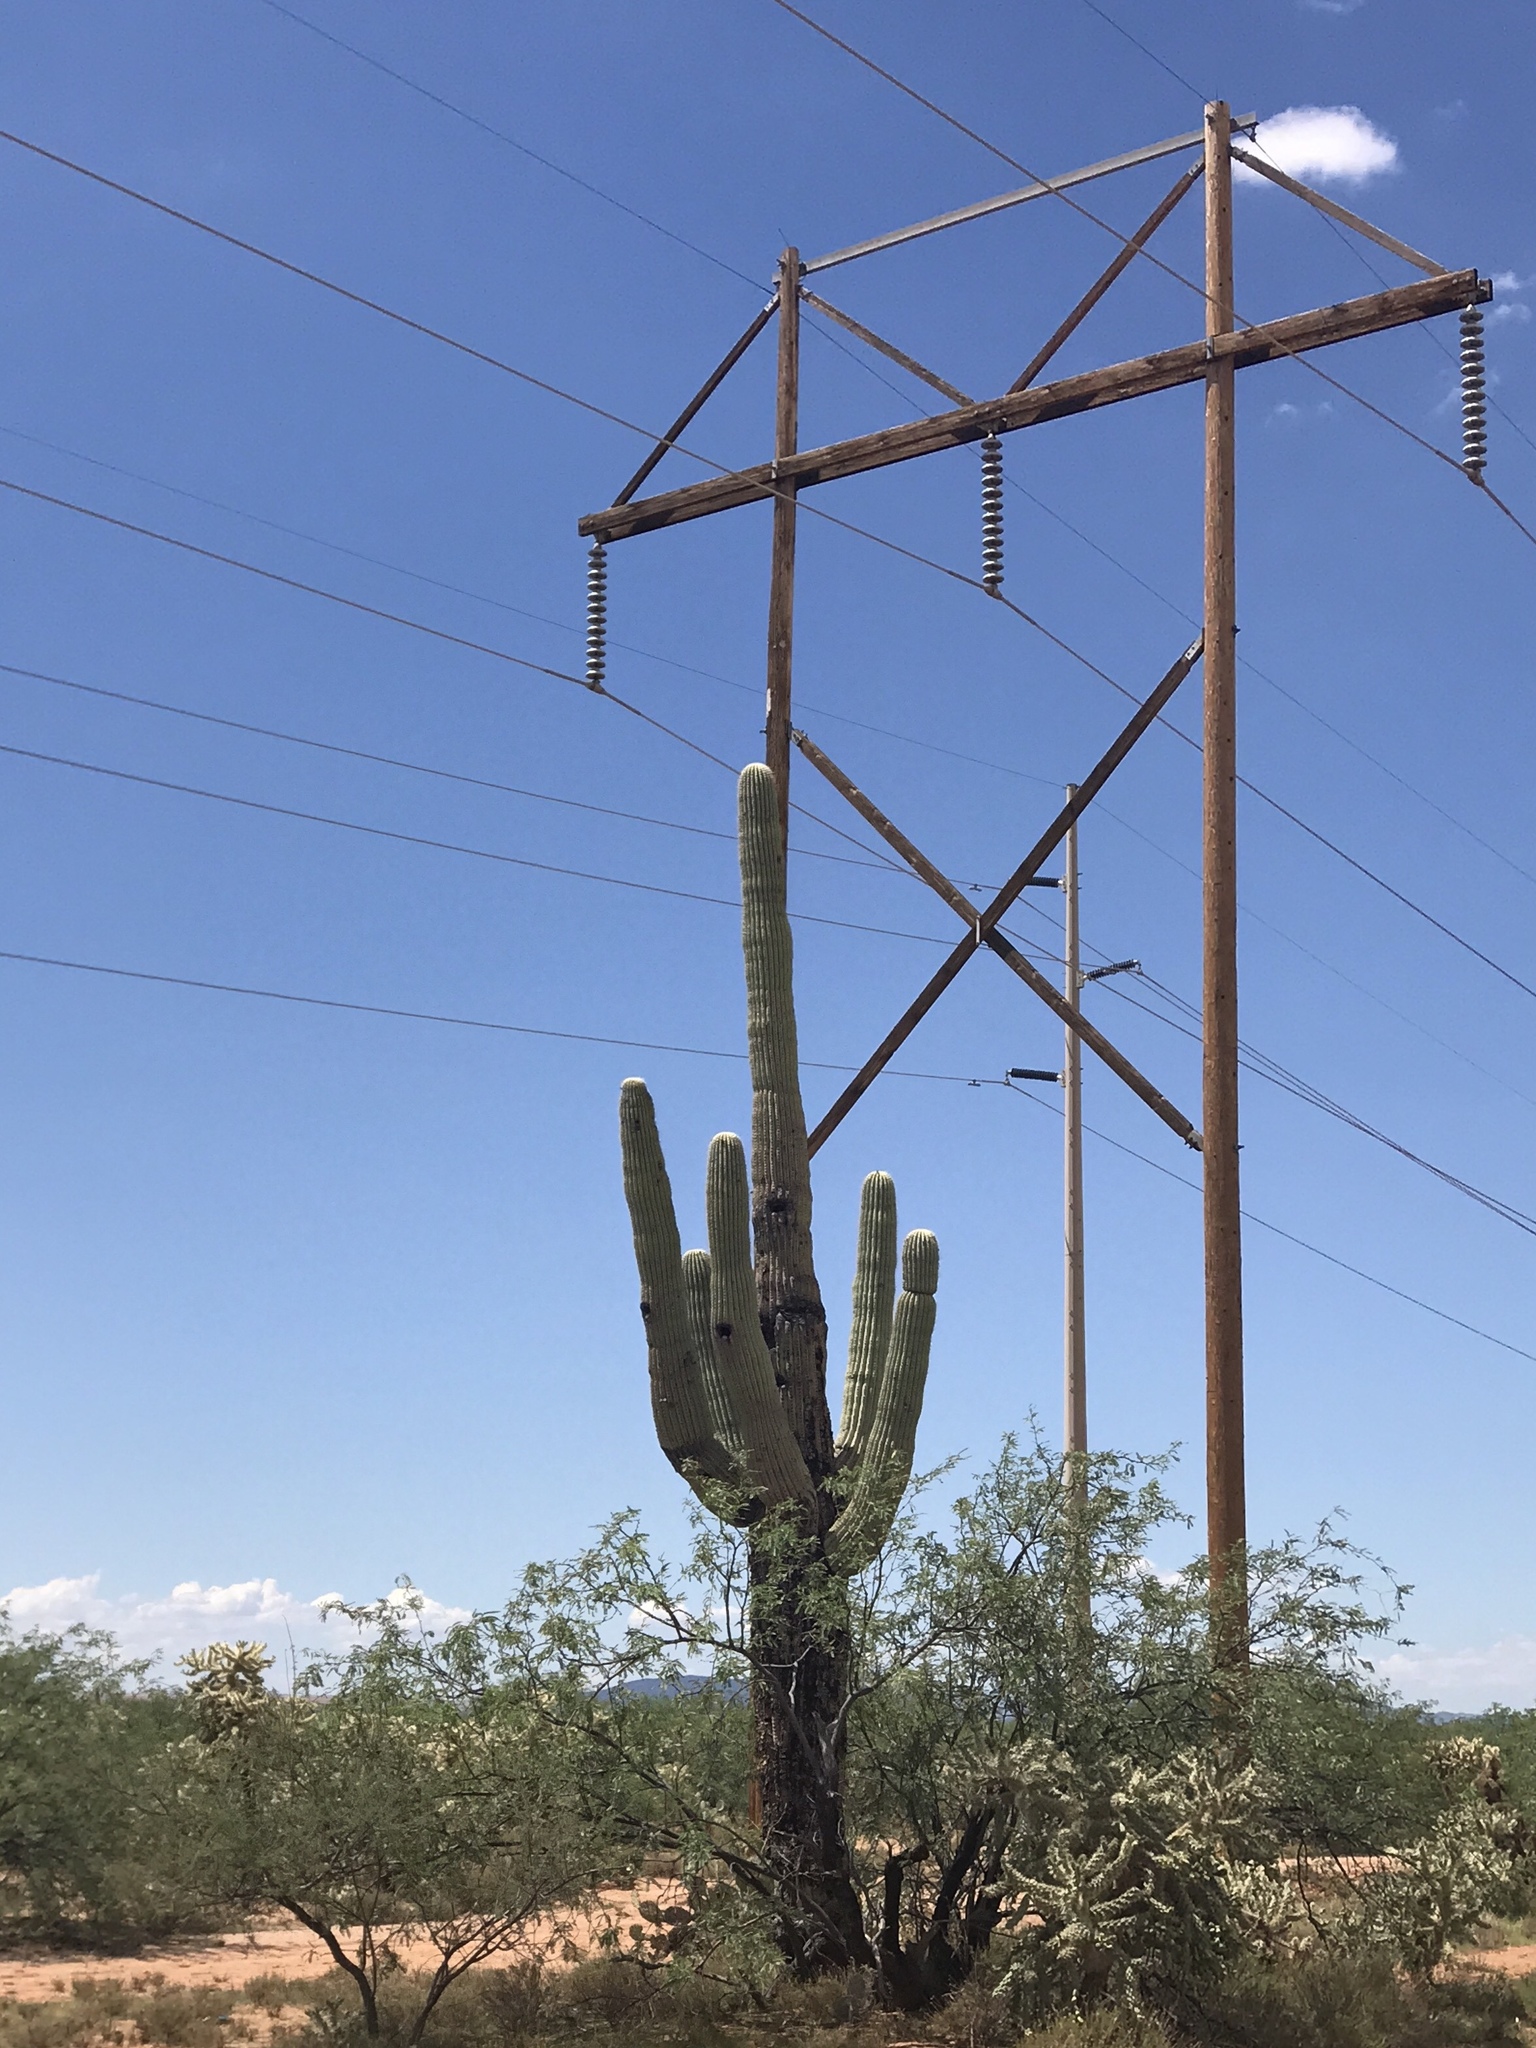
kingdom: Plantae
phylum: Tracheophyta
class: Magnoliopsida
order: Caryophyllales
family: Cactaceae
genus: Carnegiea
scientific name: Carnegiea gigantea
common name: Saguaro
